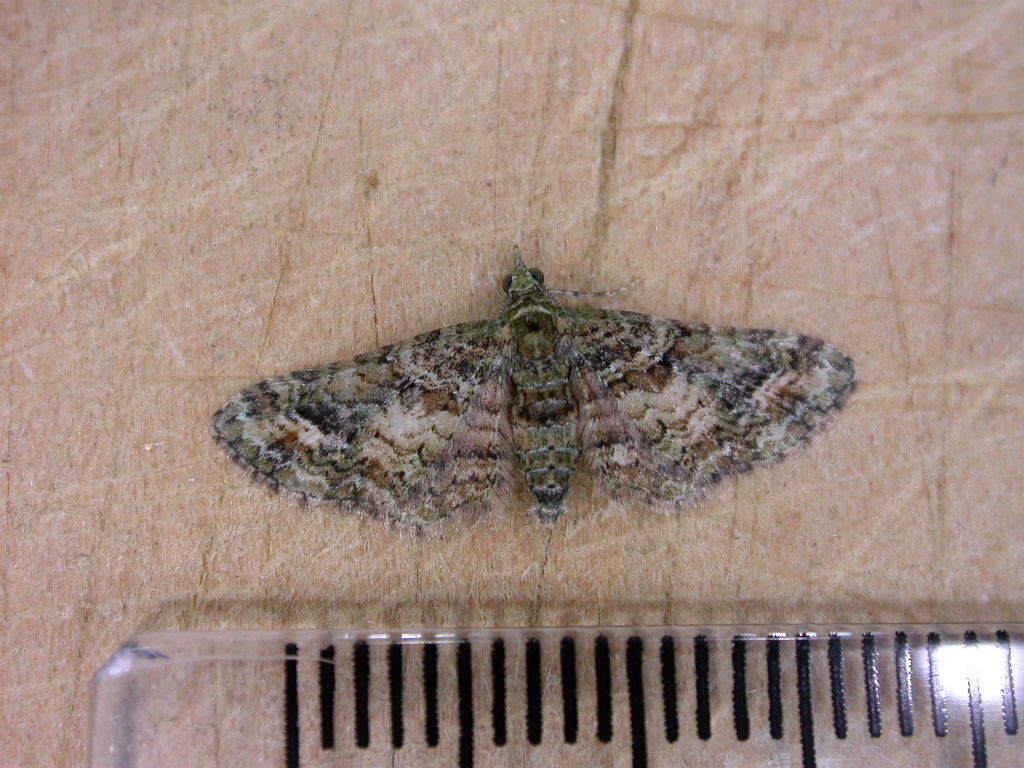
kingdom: Animalia
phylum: Arthropoda
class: Insecta
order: Lepidoptera
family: Geometridae
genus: Idaea
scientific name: Idaea mutanda
